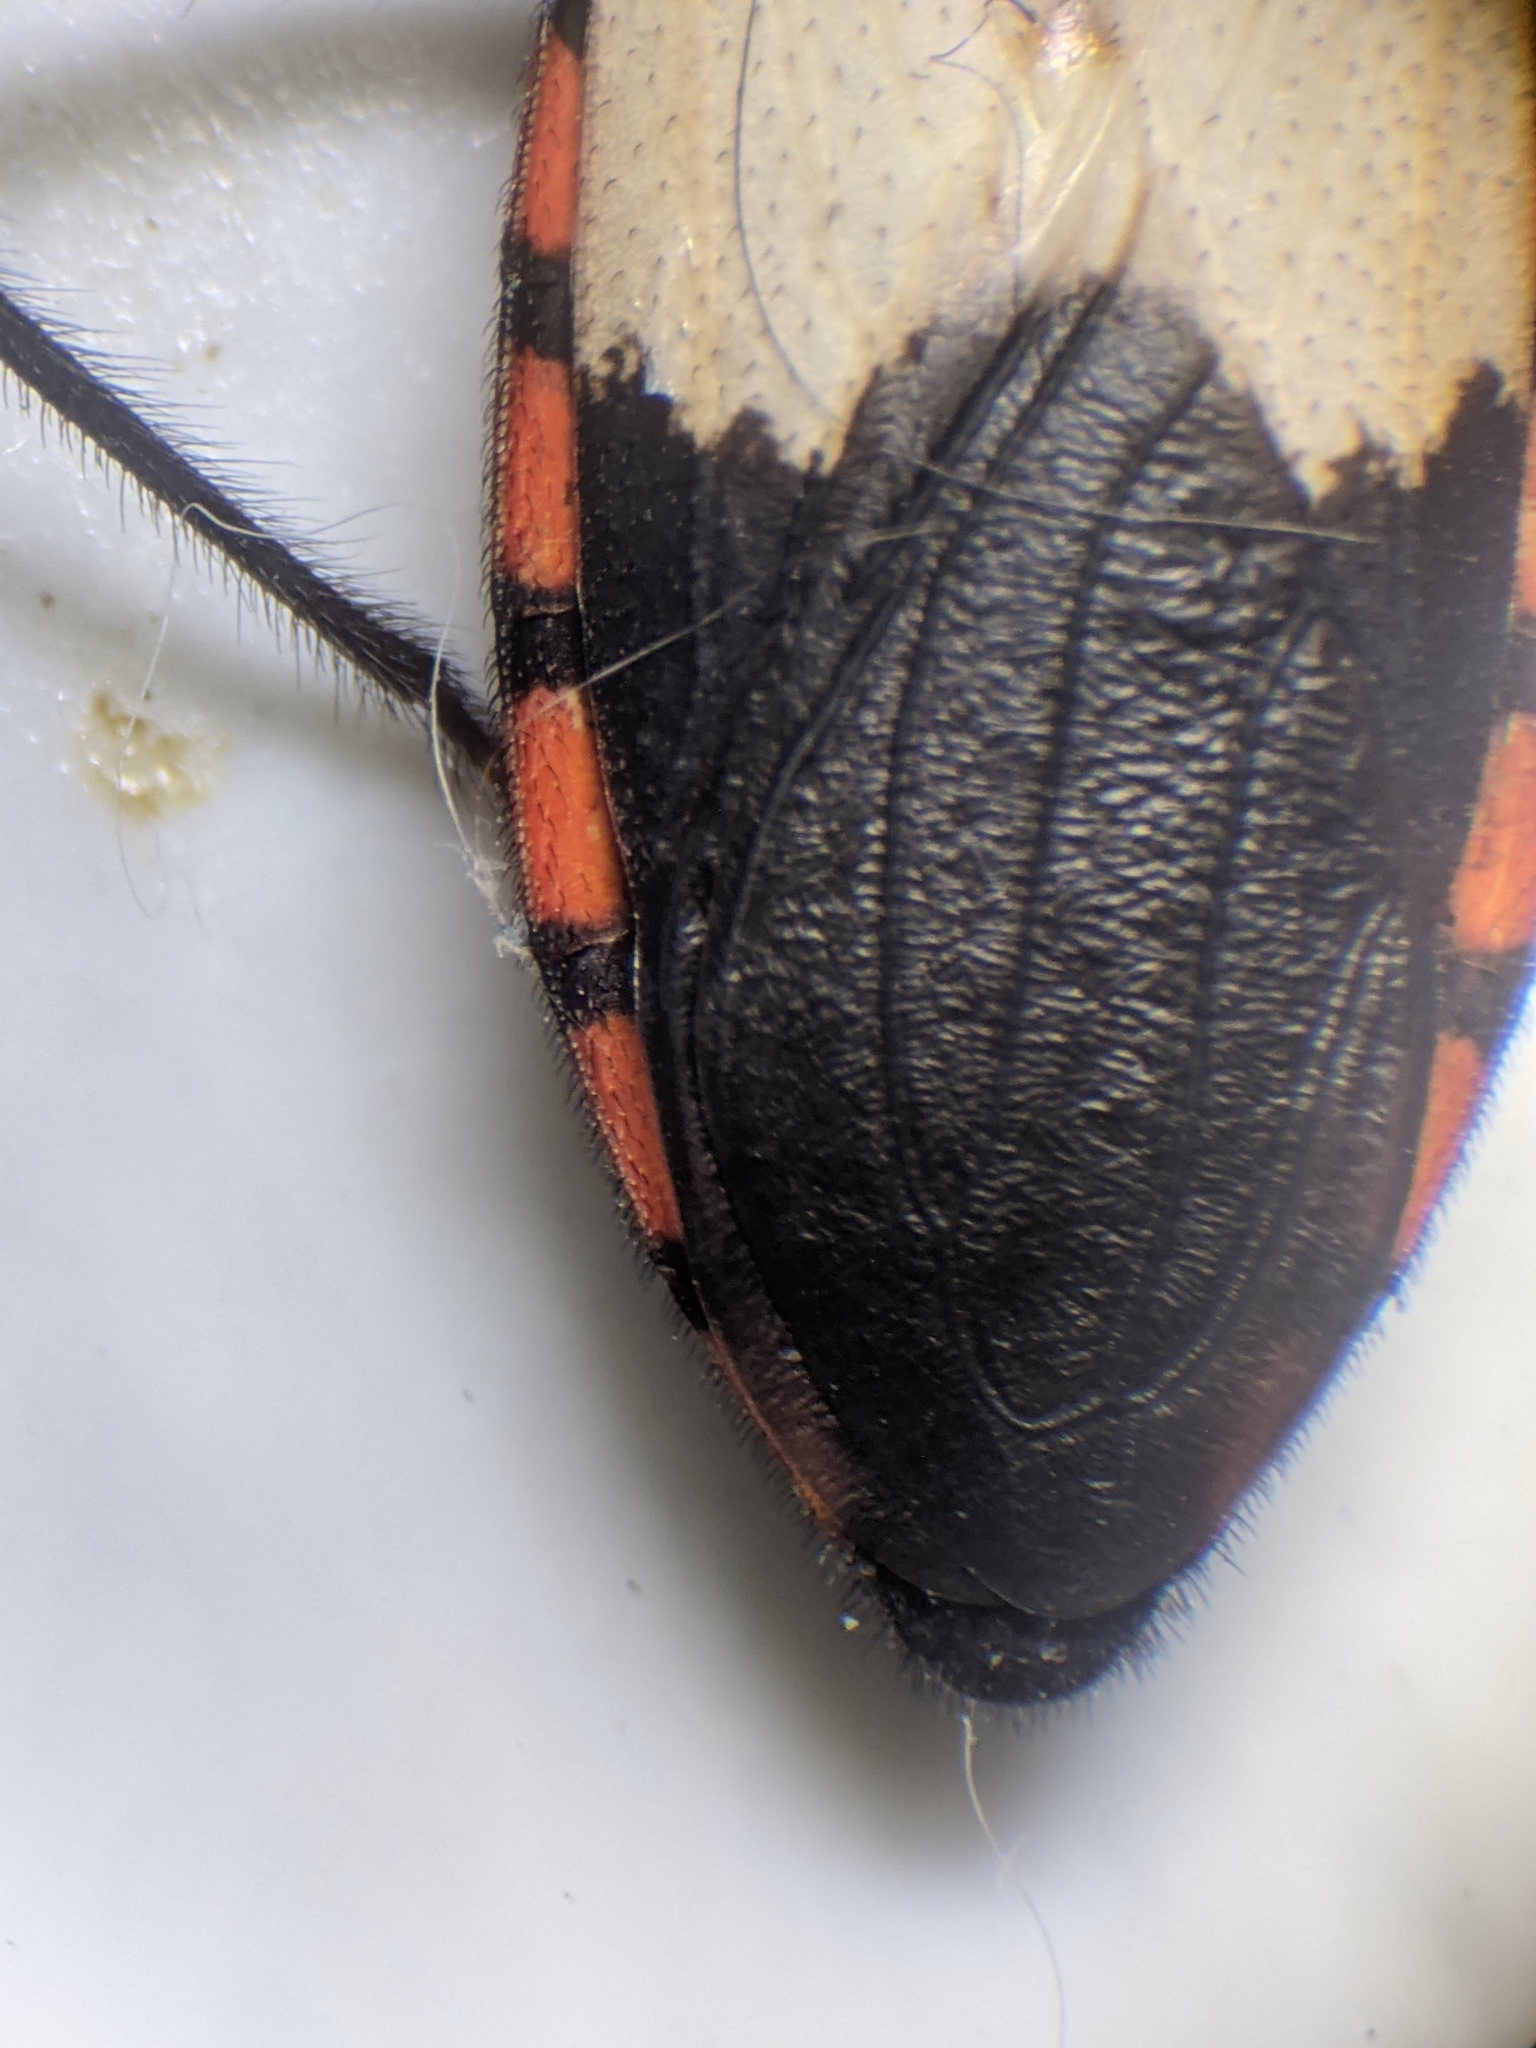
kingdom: Animalia
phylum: Arthropoda
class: Insecta
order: Hemiptera
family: Reduviidae
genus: Microtomus
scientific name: Microtomus purcis
